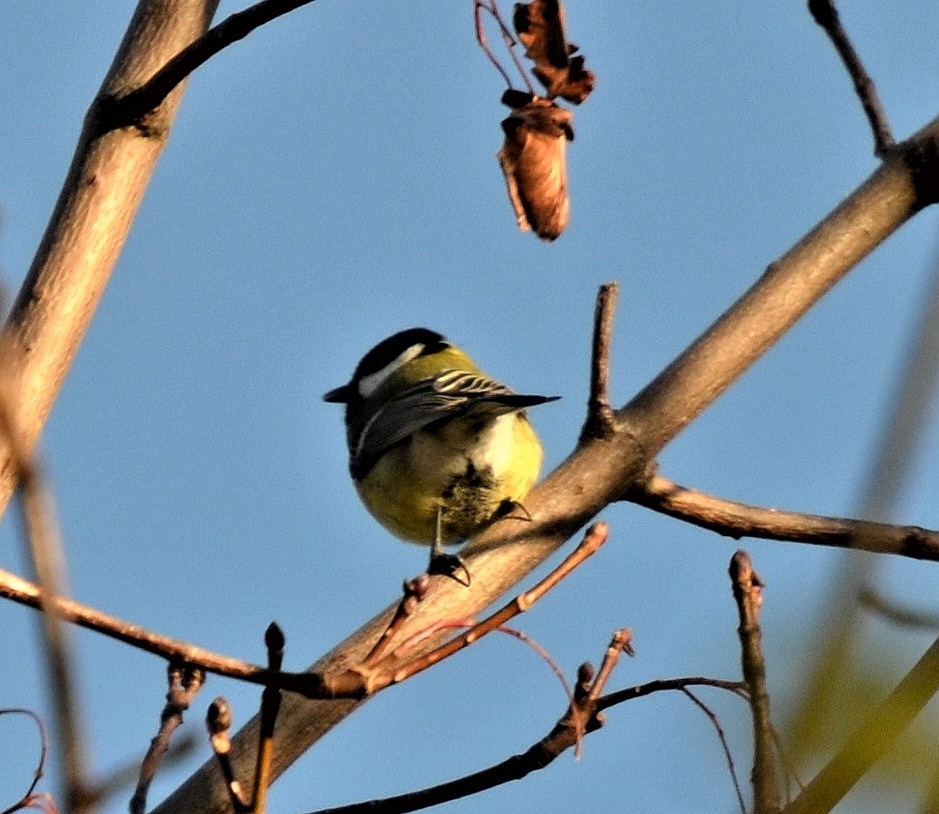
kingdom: Animalia
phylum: Chordata
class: Aves
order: Passeriformes
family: Paridae
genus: Parus
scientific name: Parus major
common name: Great tit
